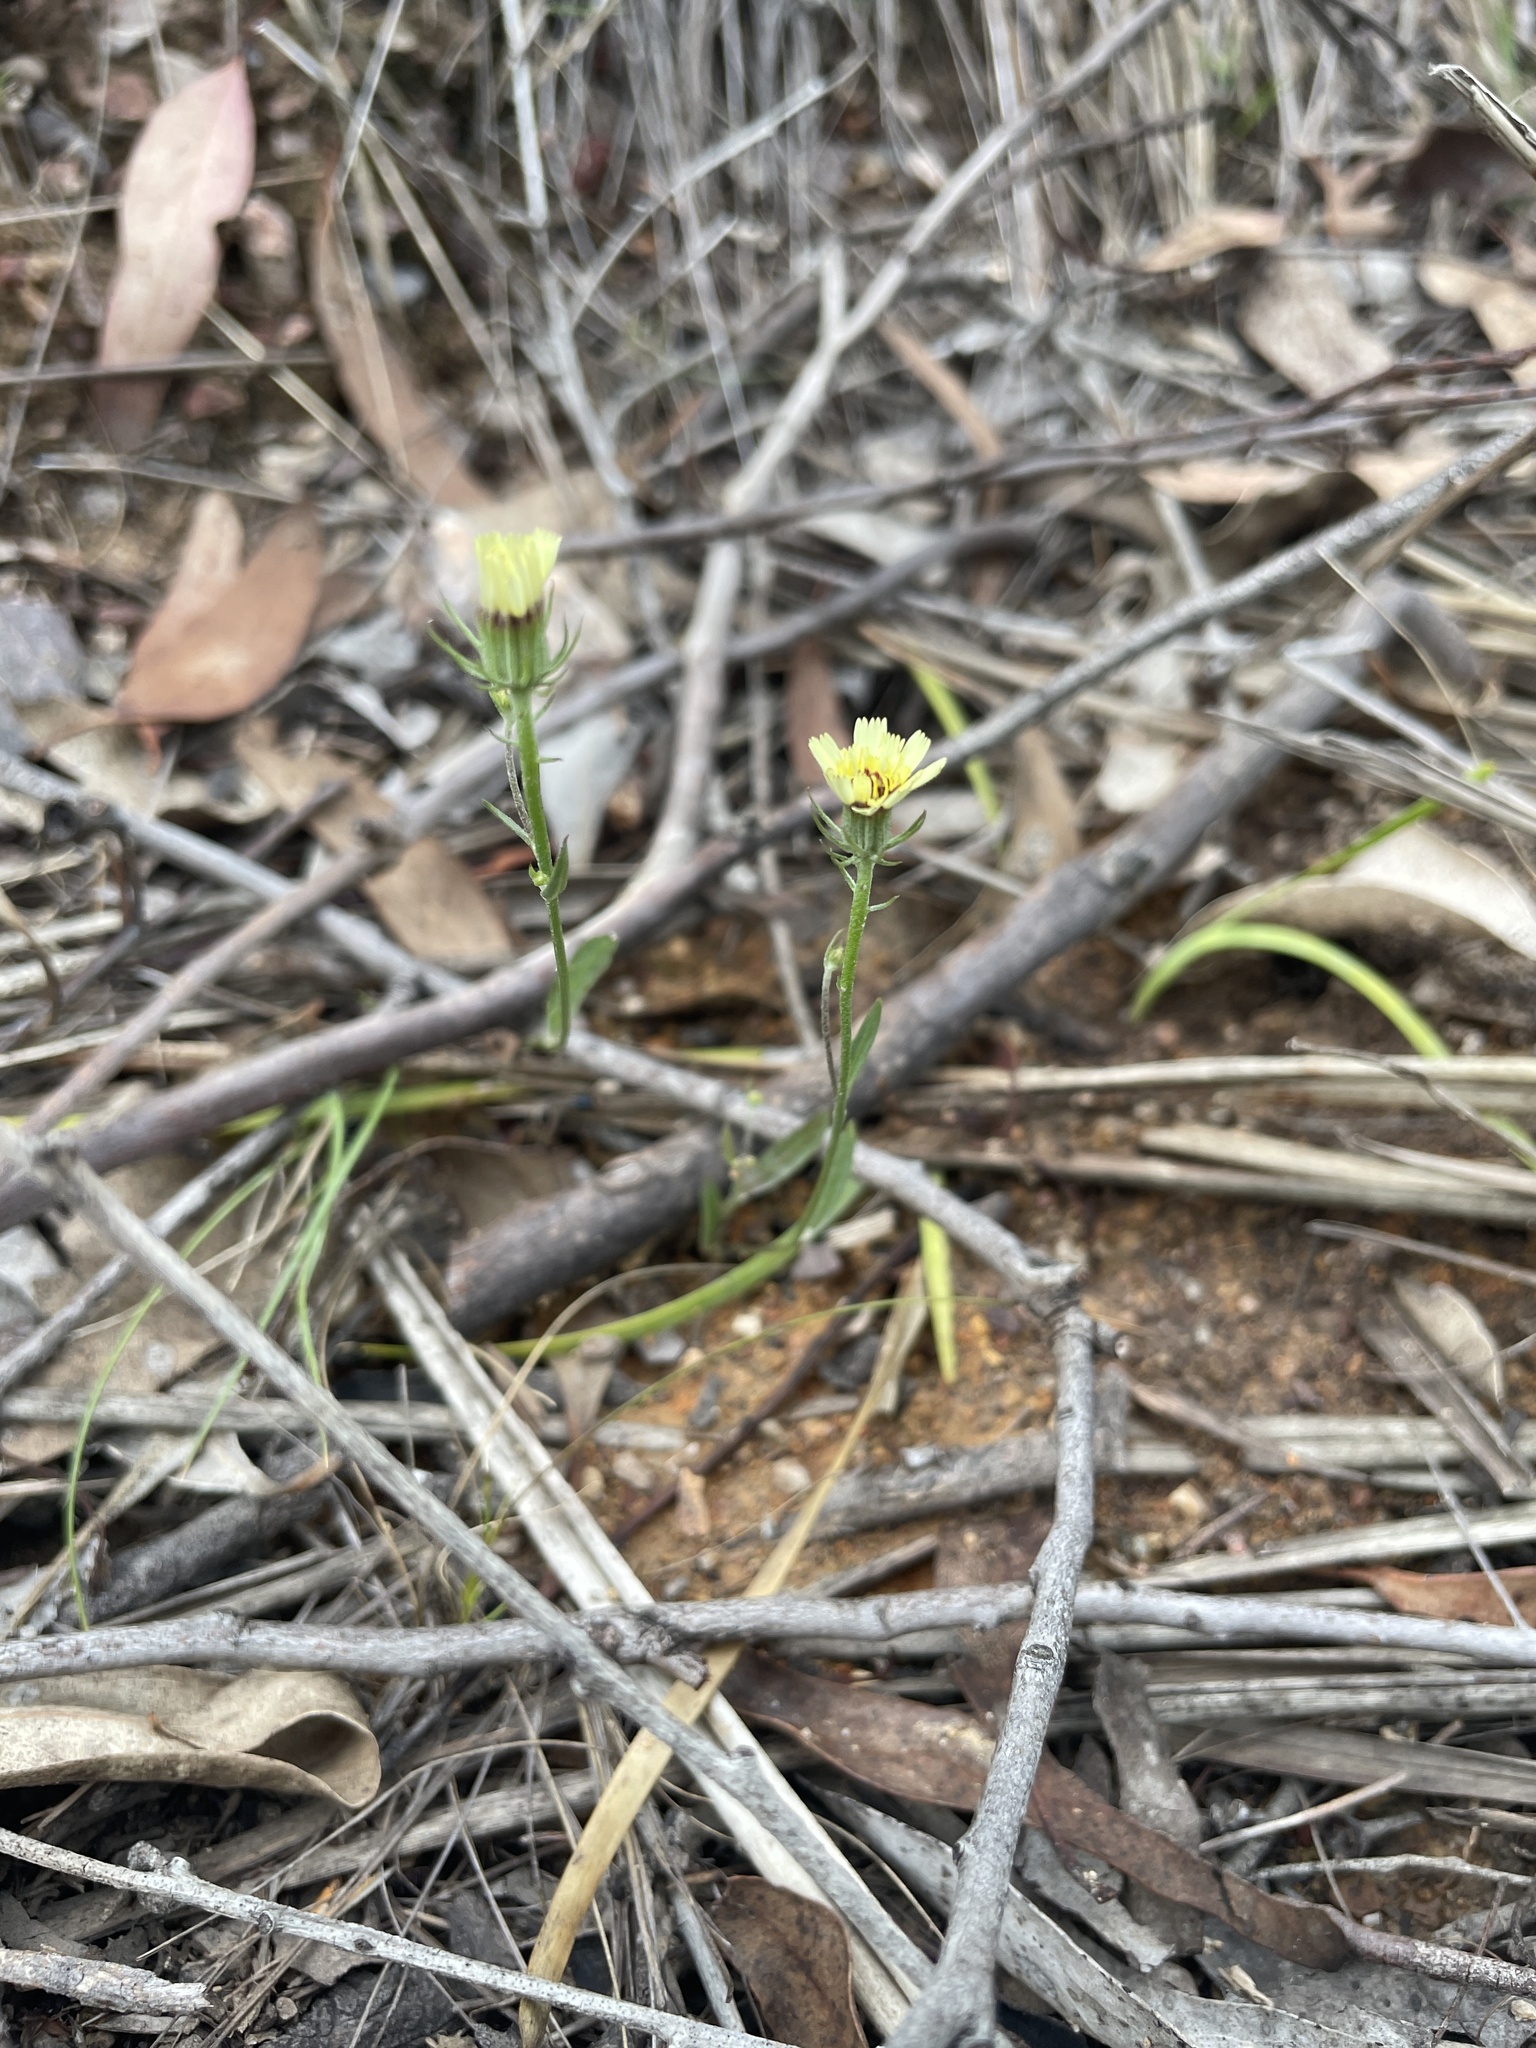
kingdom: Plantae
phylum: Tracheophyta
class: Magnoliopsida
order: Asterales
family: Asteraceae
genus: Tolpis
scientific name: Tolpis barbata
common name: Yellow hawkweed
